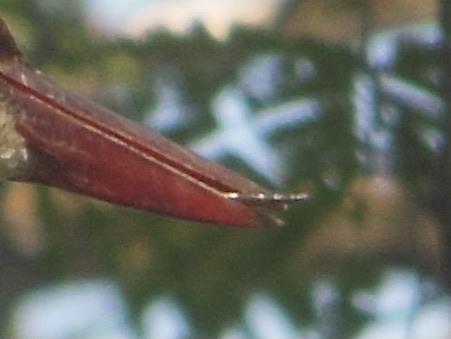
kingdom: Animalia
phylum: Chordata
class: Squamata
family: Typhlopidae
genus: Indotyphlops
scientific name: Indotyphlops braminus
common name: Brahminy blindsnake
